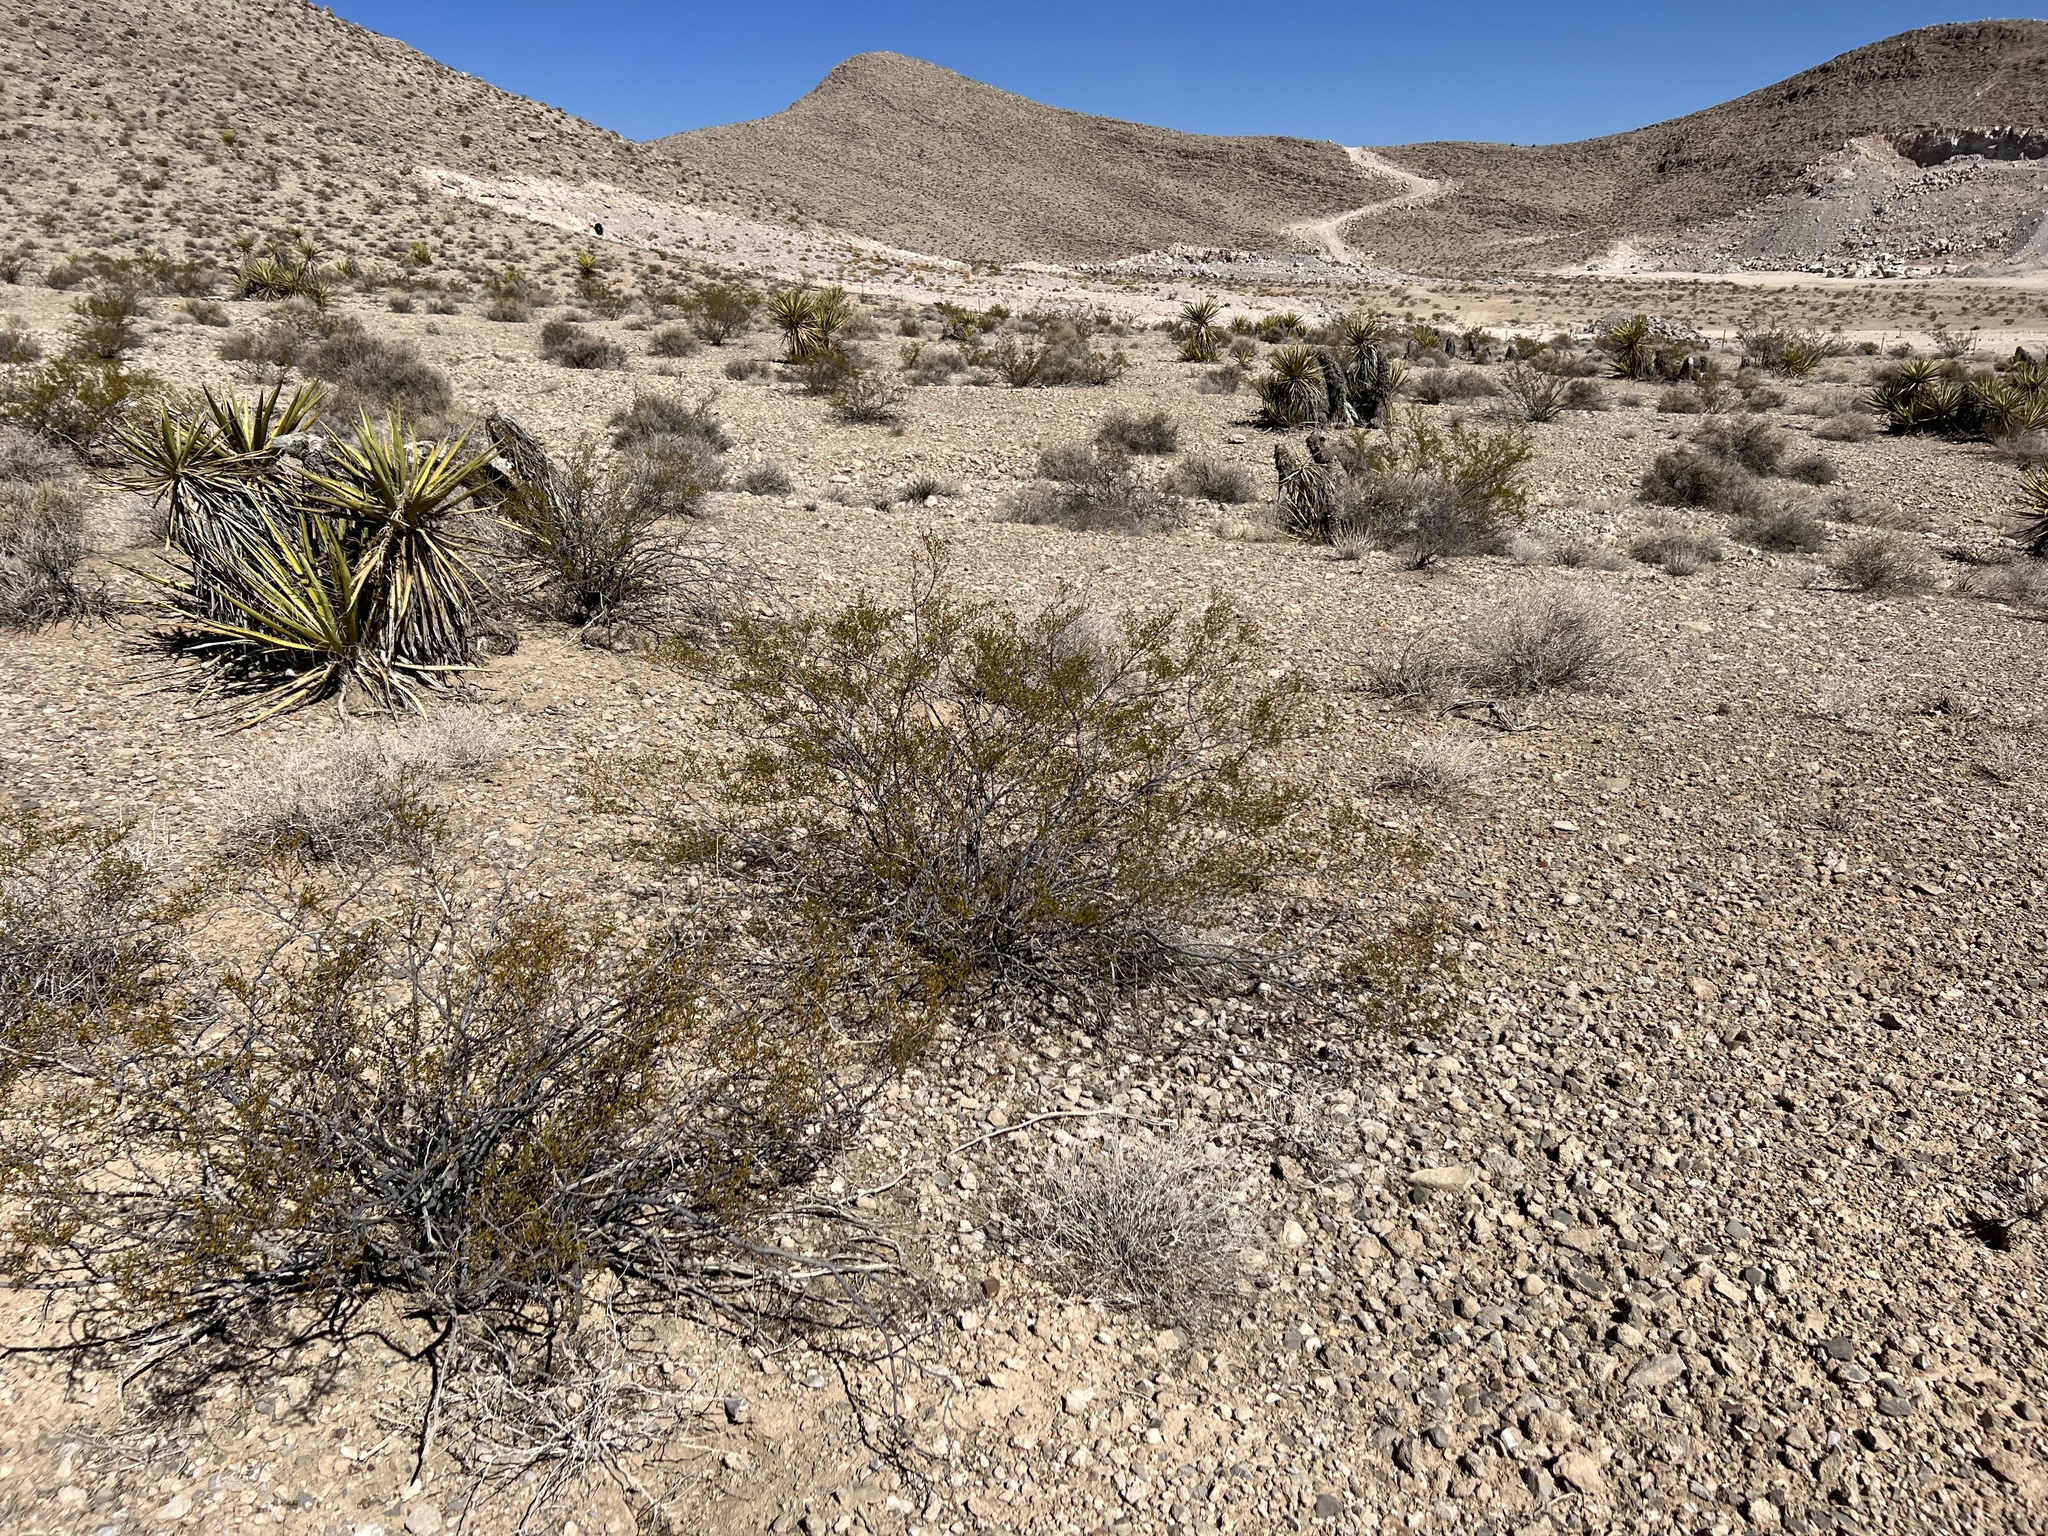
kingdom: Plantae
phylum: Tracheophyta
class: Magnoliopsida
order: Zygophyllales
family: Zygophyllaceae
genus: Larrea
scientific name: Larrea tridentata
